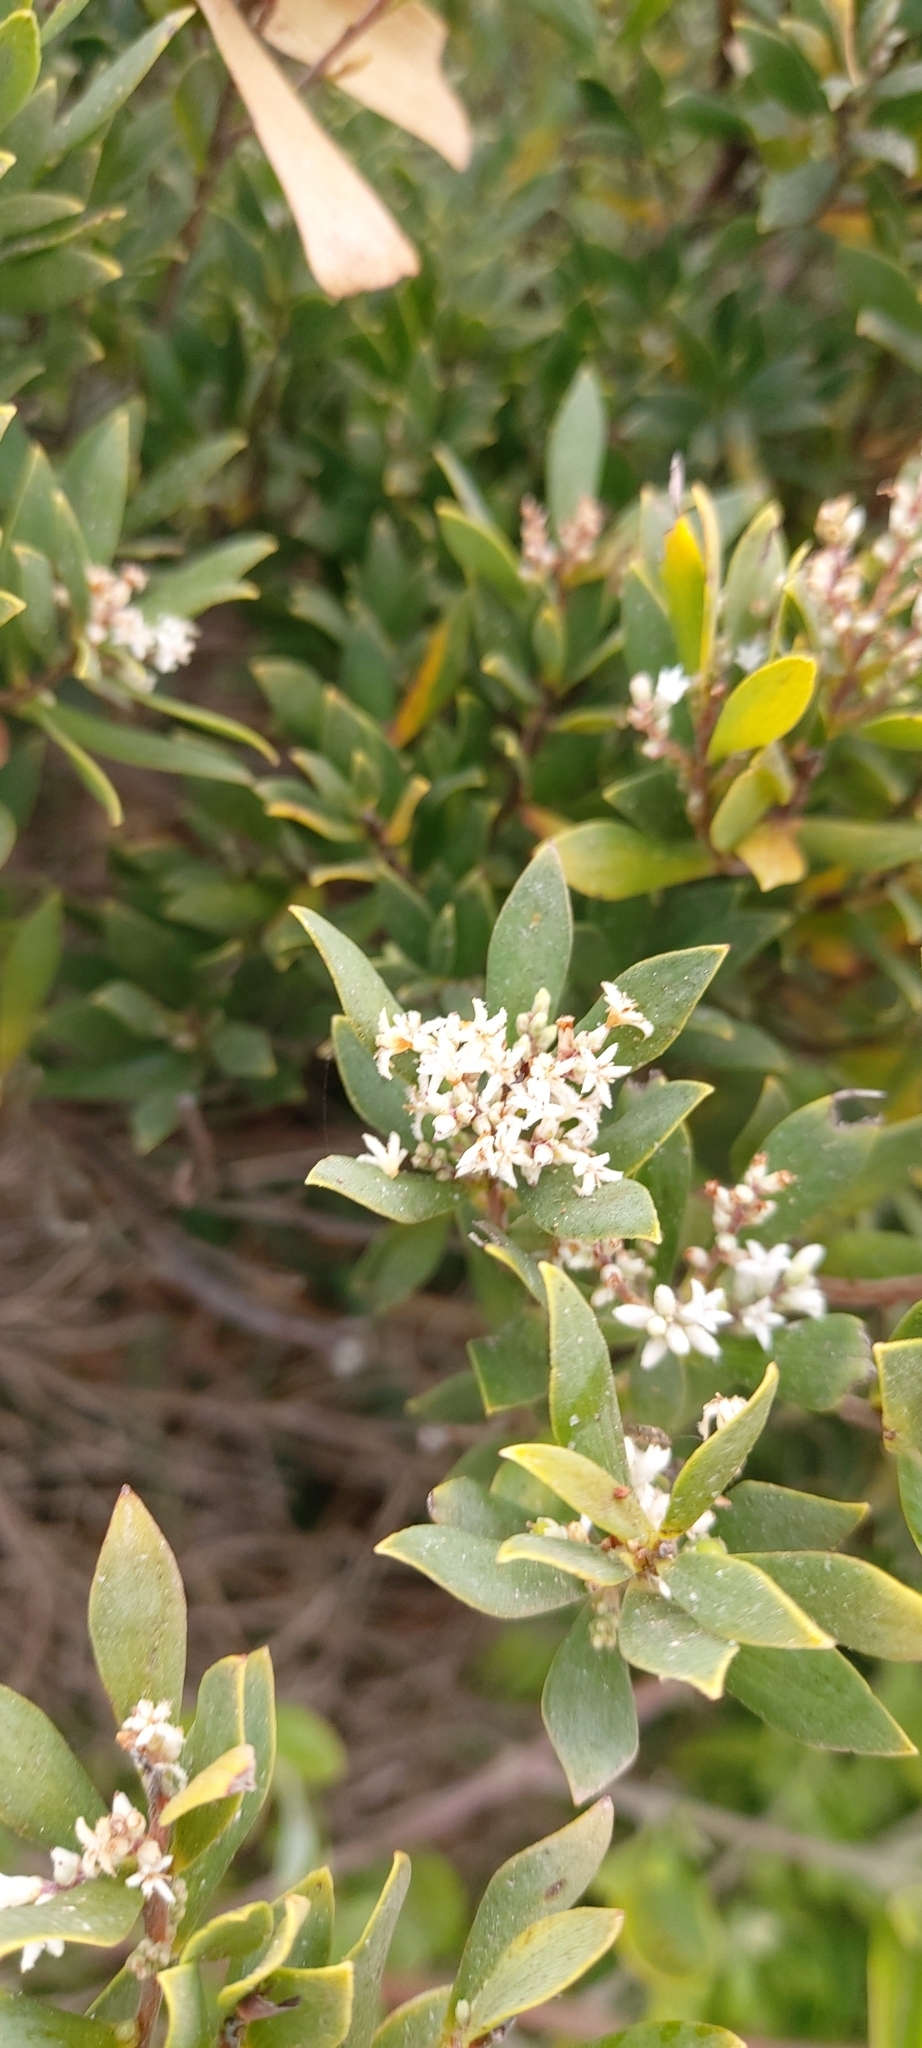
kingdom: Plantae
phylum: Tracheophyta
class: Magnoliopsida
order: Ericales
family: Ericaceae
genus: Leptecophylla
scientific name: Leptecophylla parvifolia
